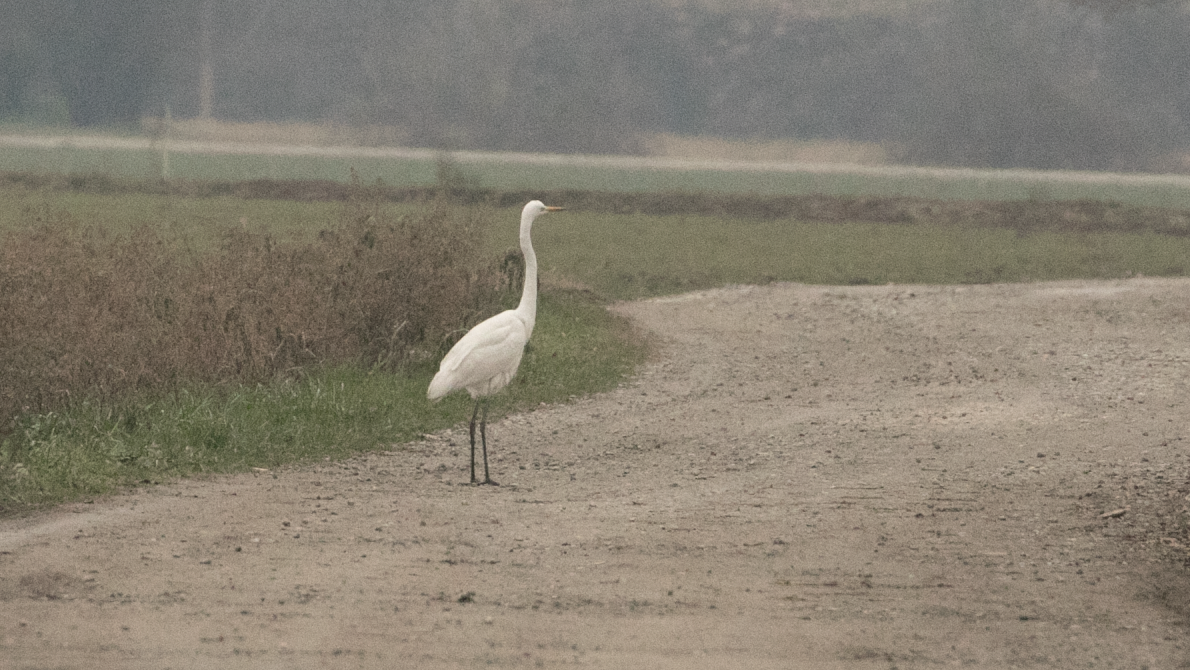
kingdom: Animalia
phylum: Chordata
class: Aves
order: Pelecaniformes
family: Ardeidae
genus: Ardea
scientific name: Ardea alba
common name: Great egret
